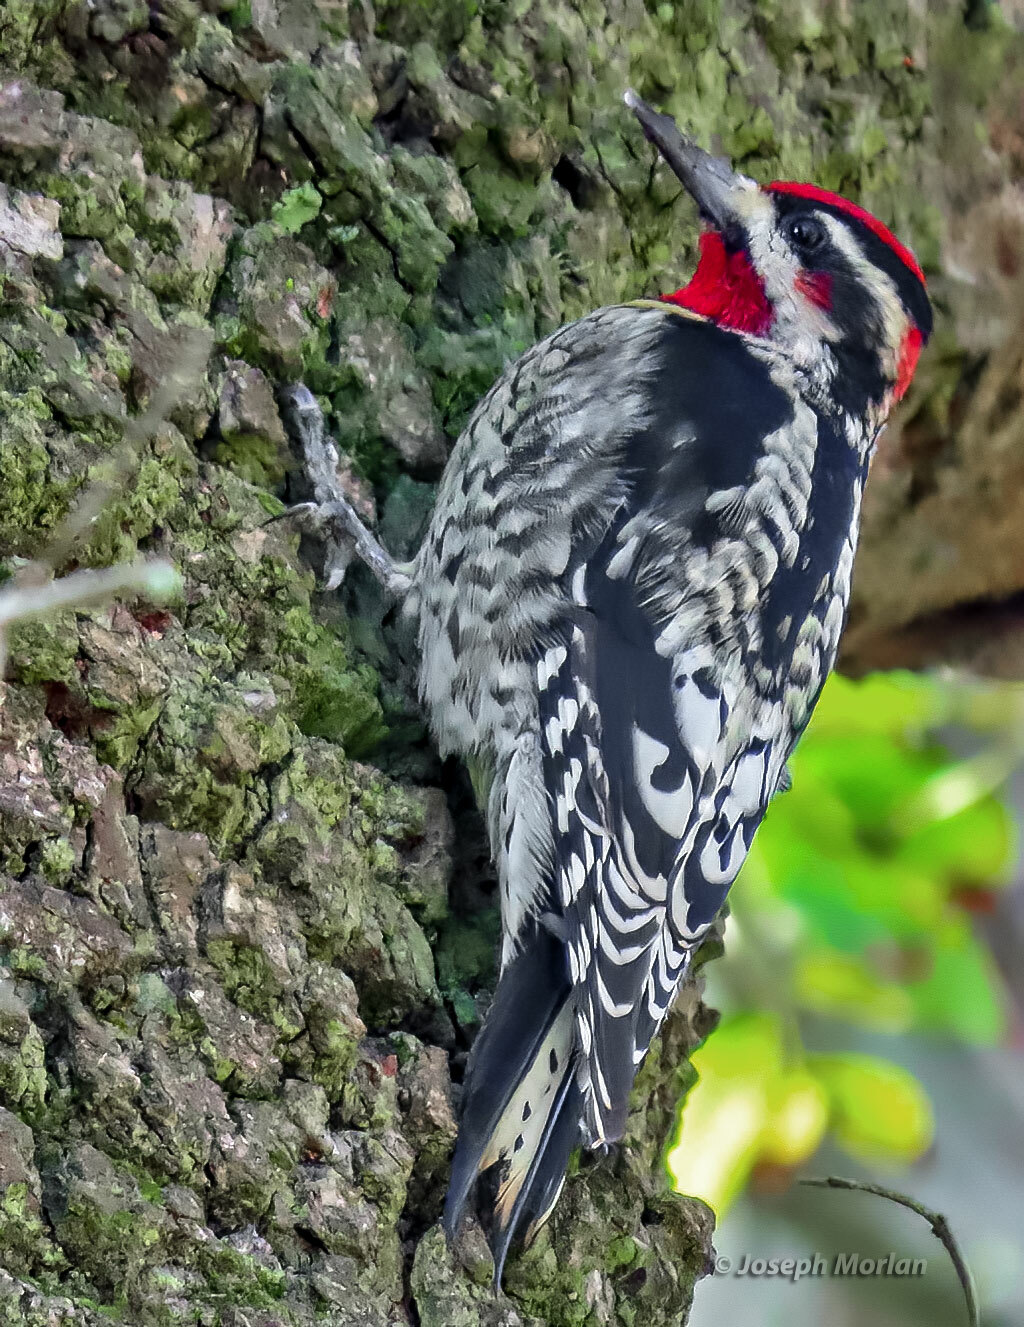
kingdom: Animalia
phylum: Chordata
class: Aves
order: Piciformes
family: Picidae
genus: Sphyrapicus
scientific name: Sphyrapicus nuchalis
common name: Red-naped sapsucker
